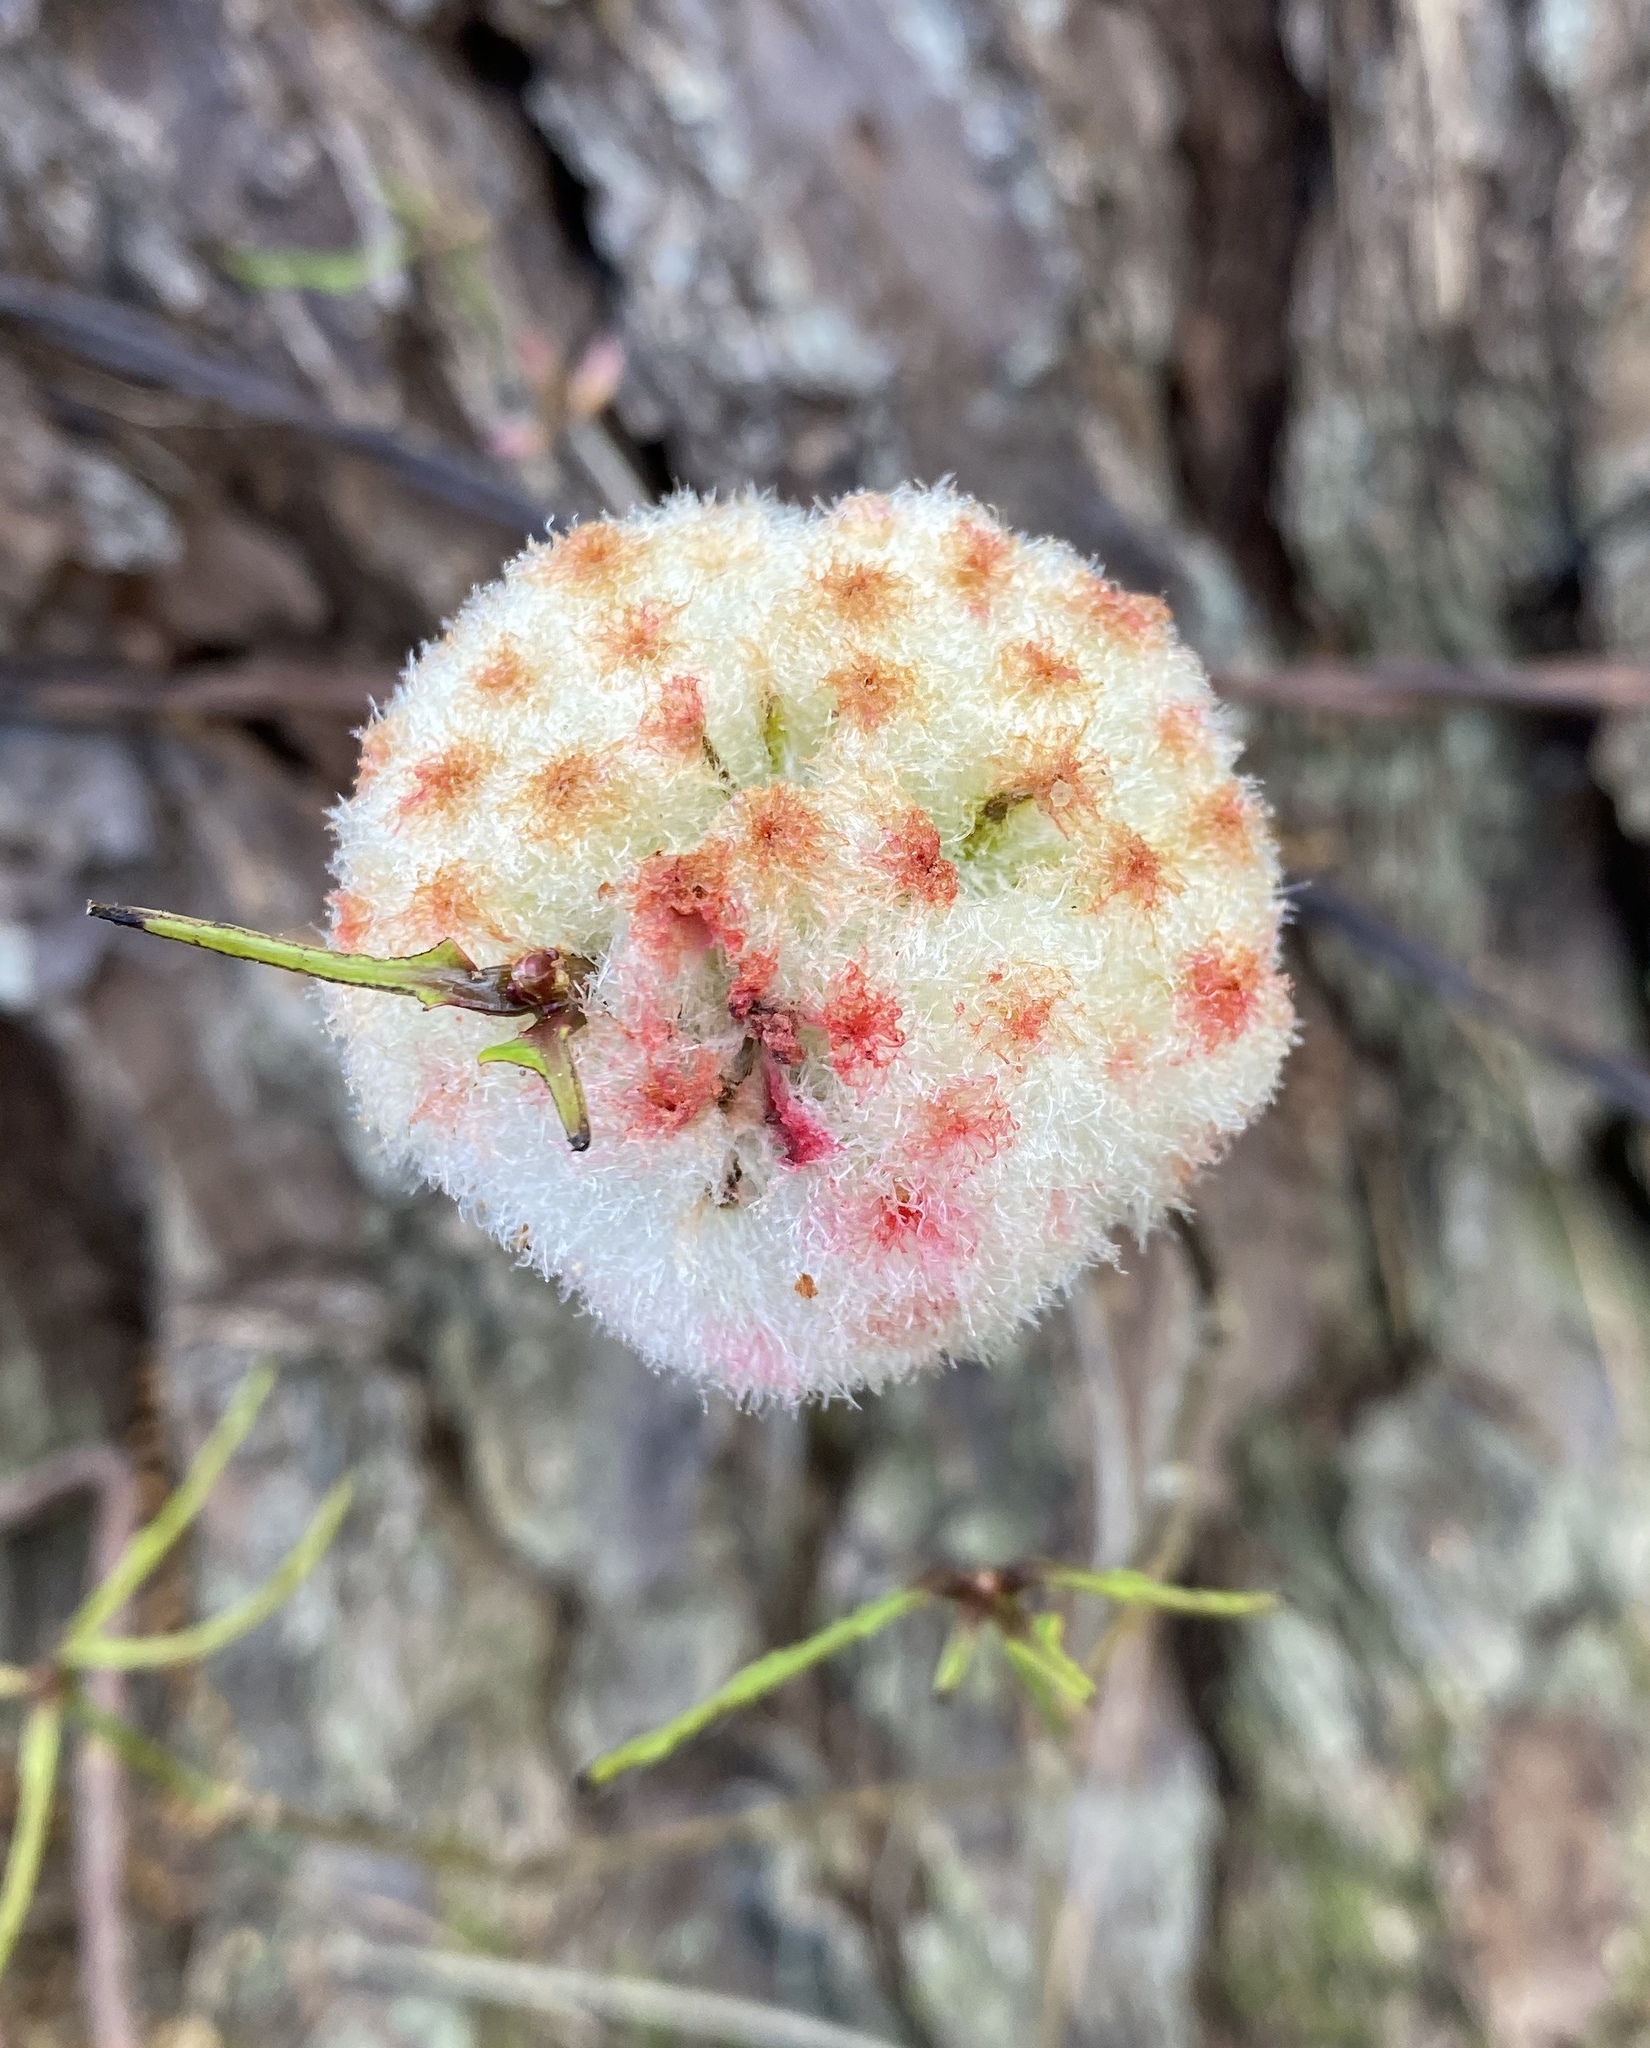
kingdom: Animalia
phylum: Arthropoda
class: Insecta
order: Hymenoptera
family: Cynipidae
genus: Callirhytis
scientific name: Callirhytis
